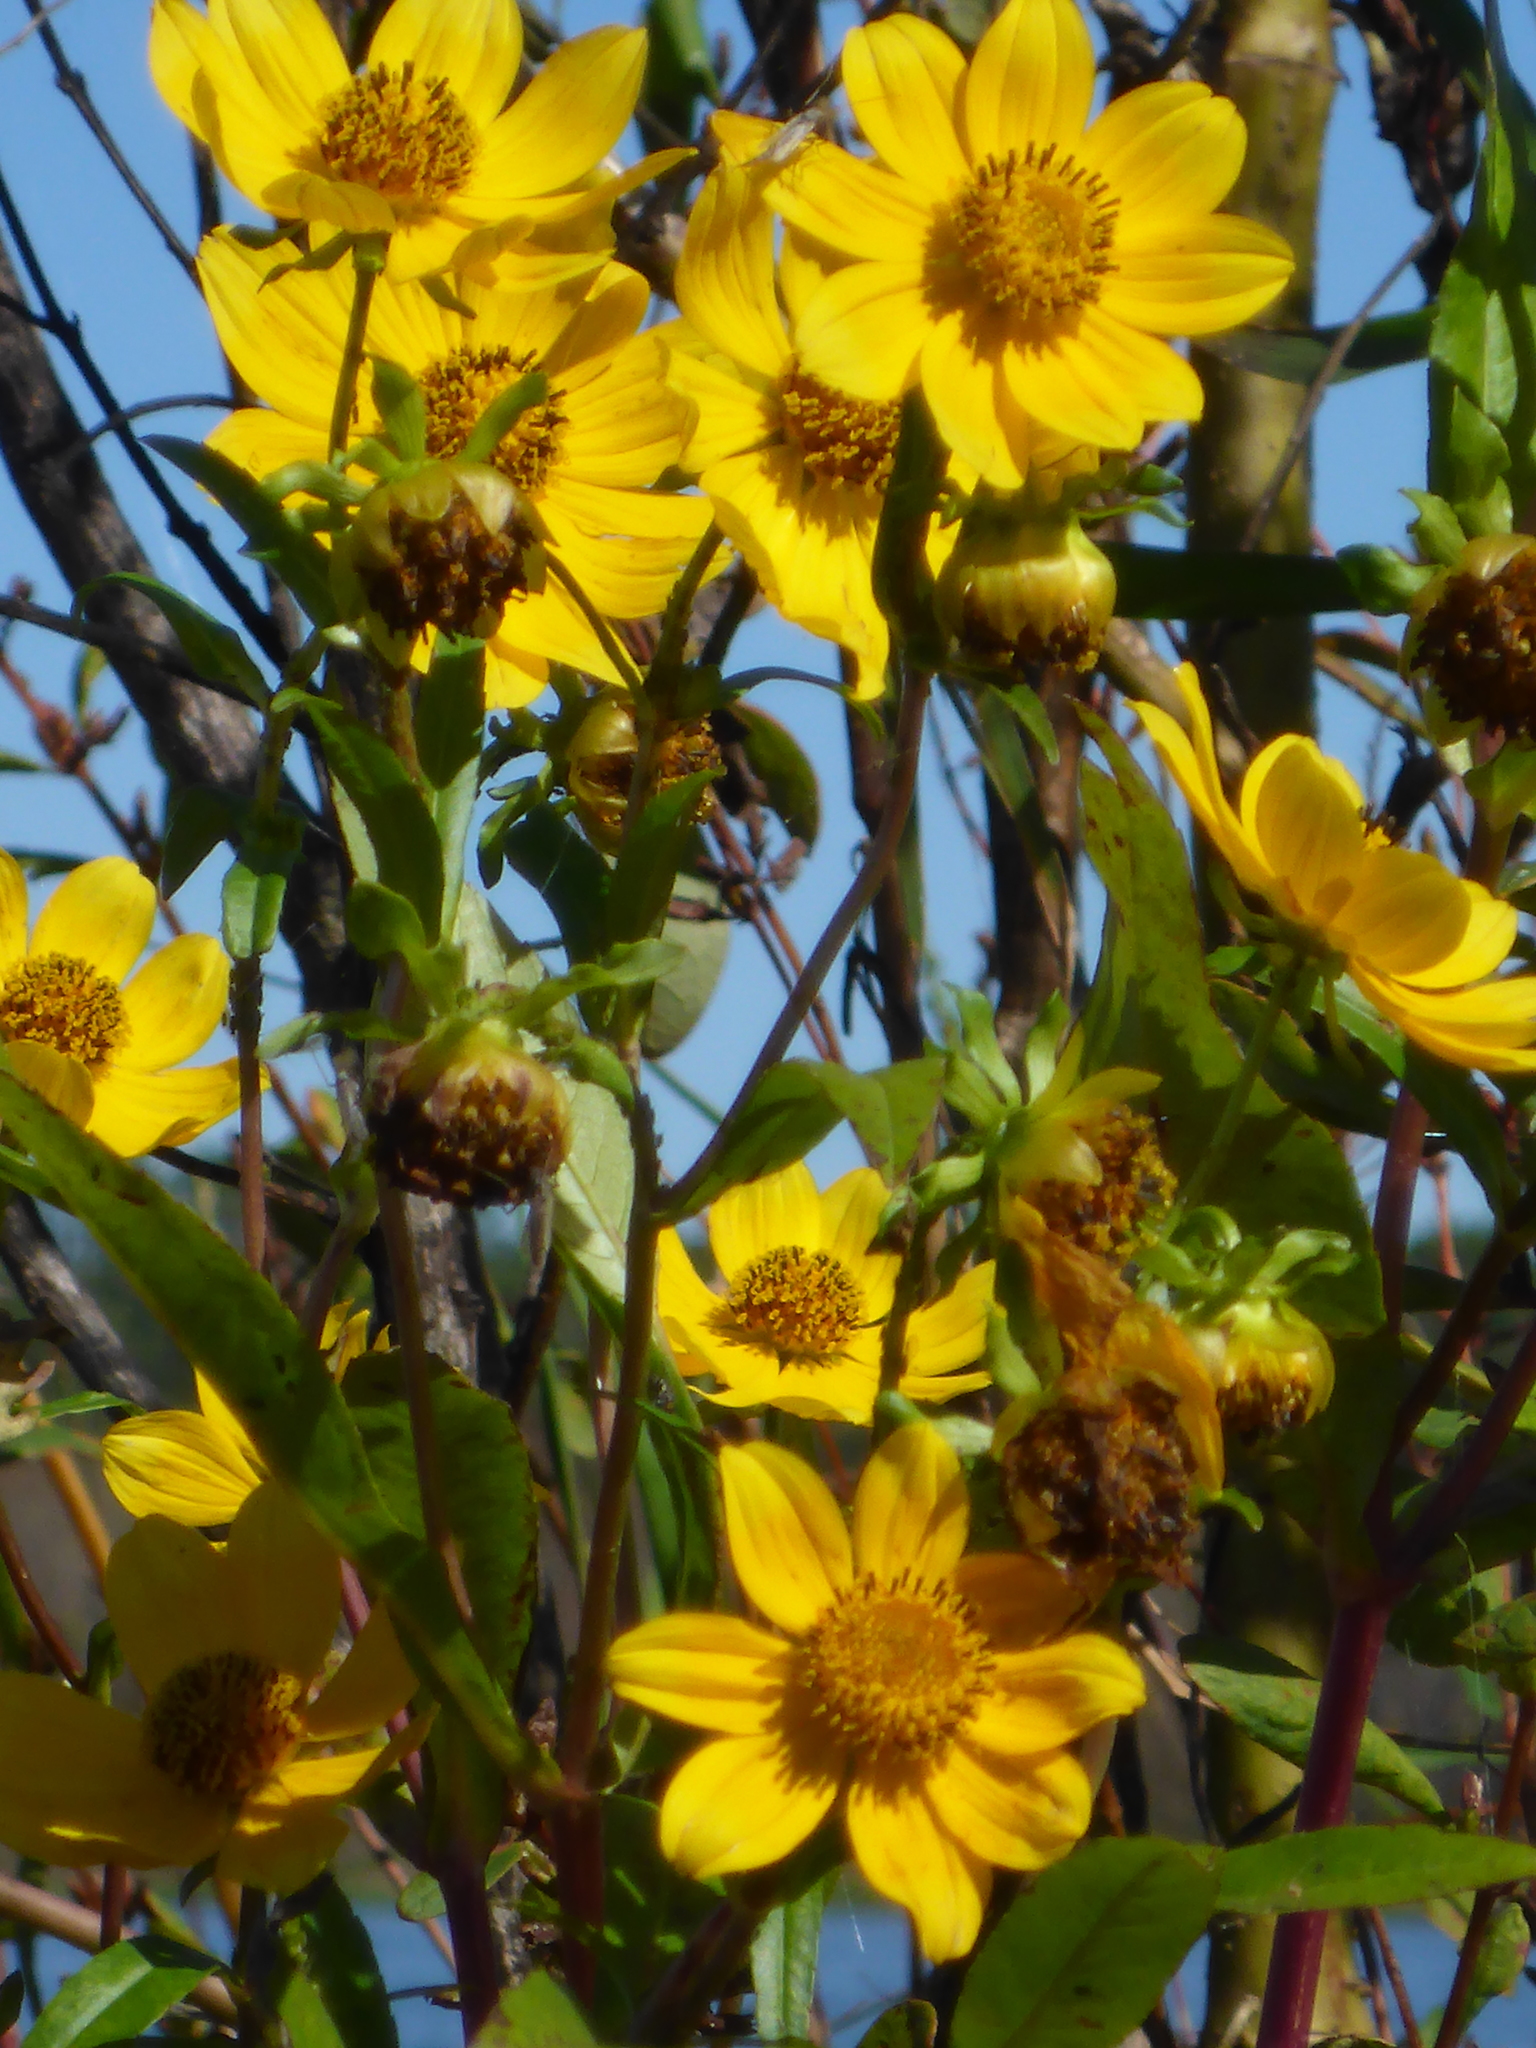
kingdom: Plantae
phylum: Tracheophyta
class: Magnoliopsida
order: Asterales
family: Asteraceae
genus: Bidens
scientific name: Bidens laevis
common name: Larger bur-marigold
